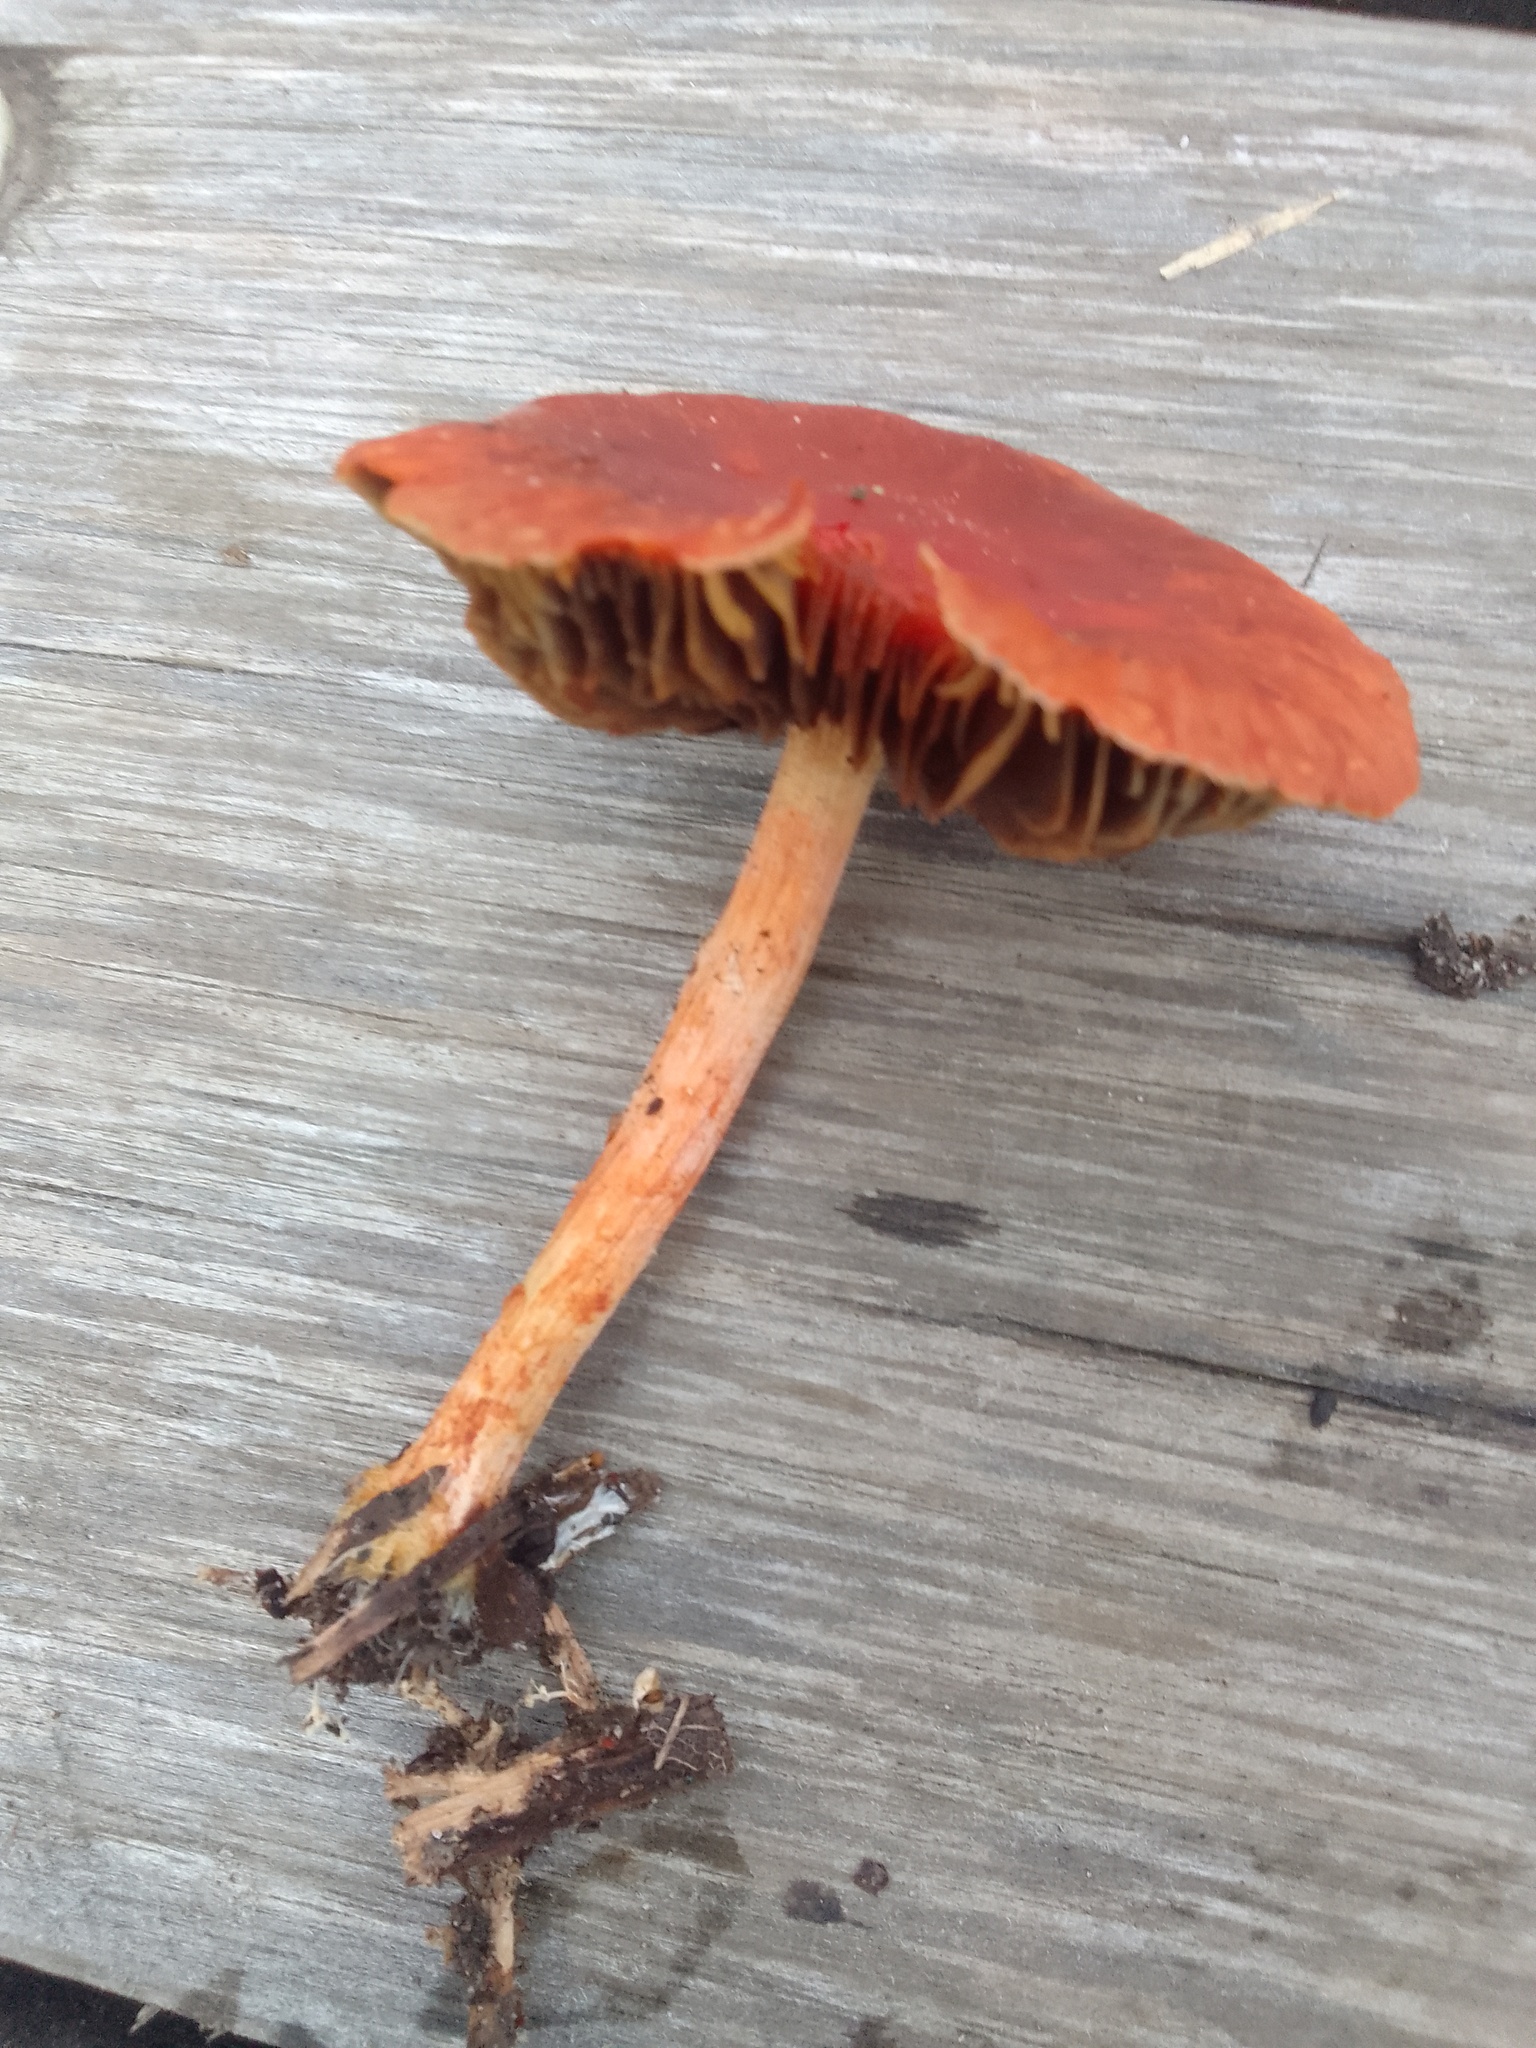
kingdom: Fungi
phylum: Basidiomycota
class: Agaricomycetes
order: Agaricales
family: Strophariaceae
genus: Leratiomyces
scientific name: Leratiomyces ceres
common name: Redlead roundhead
